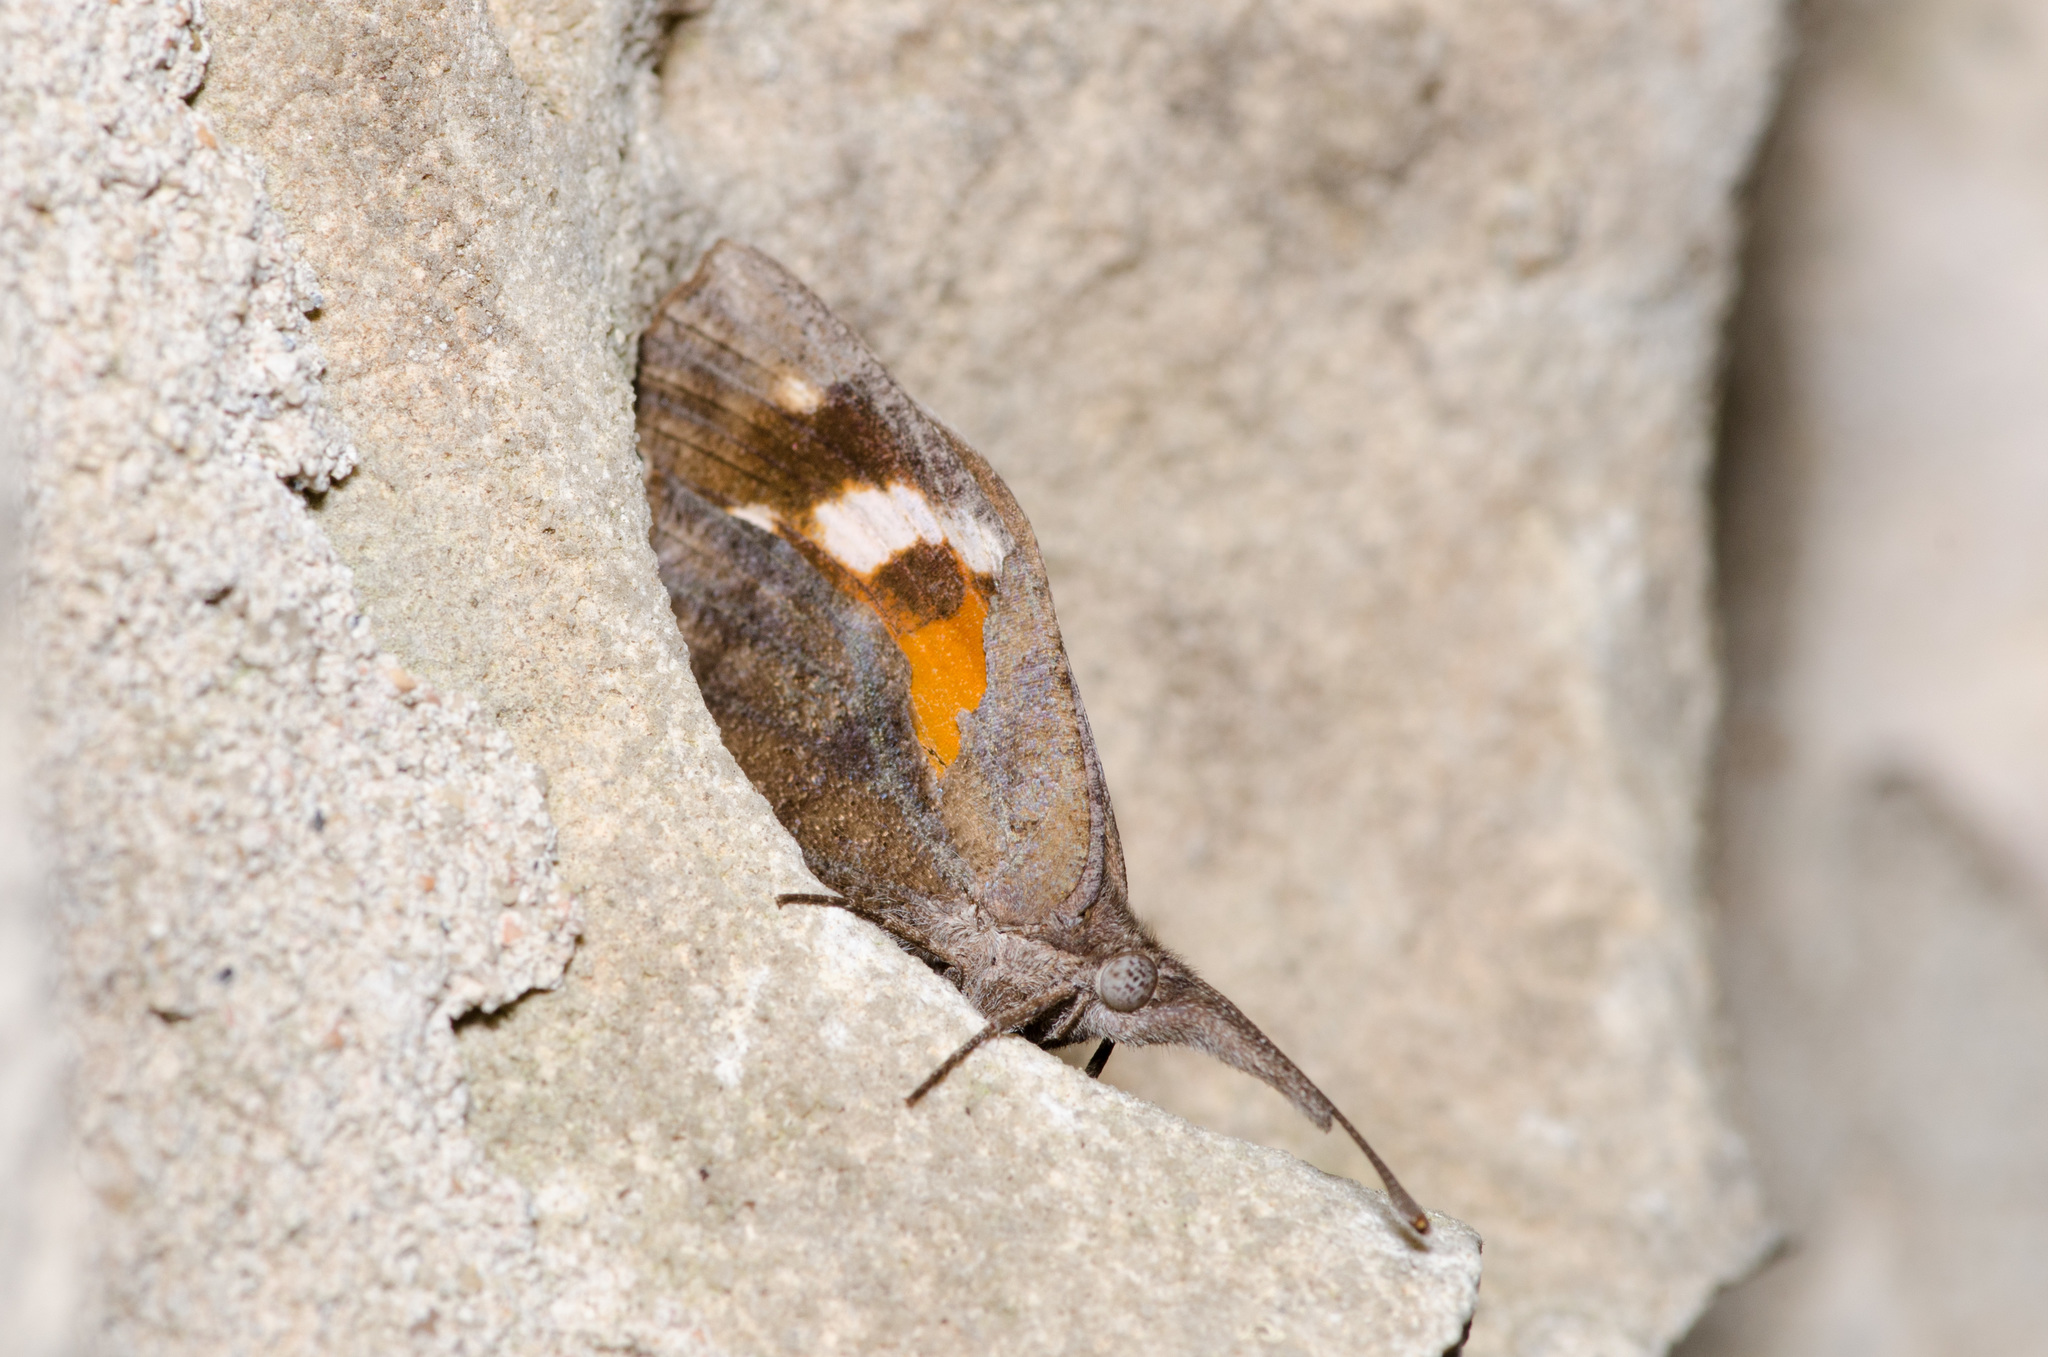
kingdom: Animalia
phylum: Arthropoda
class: Insecta
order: Lepidoptera
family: Nymphalidae
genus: Libytheana
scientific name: Libytheana carinenta
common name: American snout
